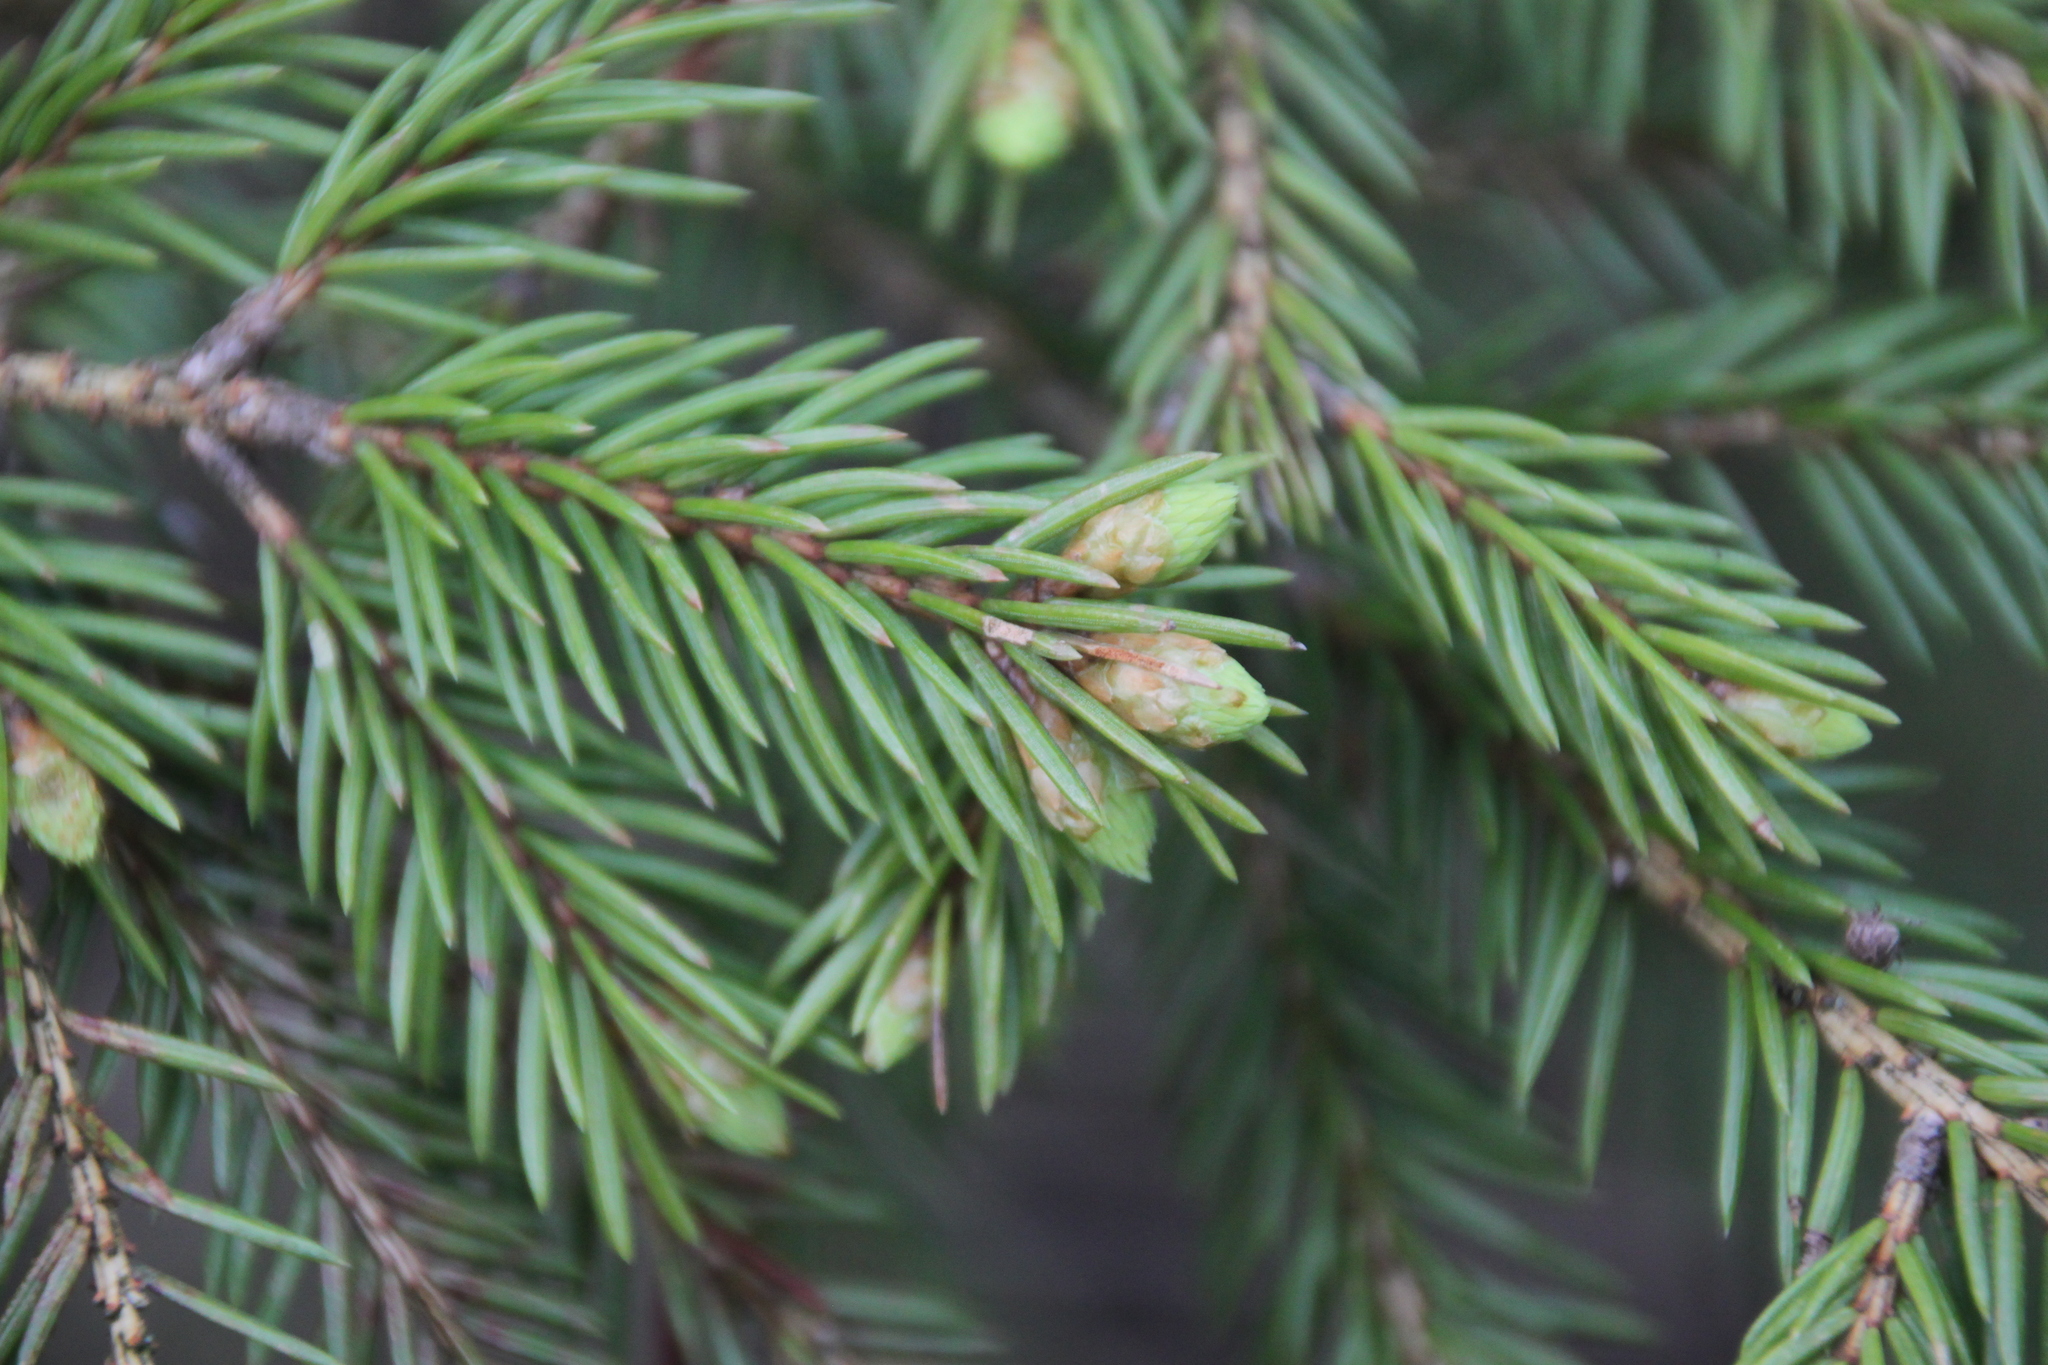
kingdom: Plantae
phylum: Tracheophyta
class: Pinopsida
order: Pinales
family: Pinaceae
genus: Picea
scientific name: Picea abies
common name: Norway spruce
